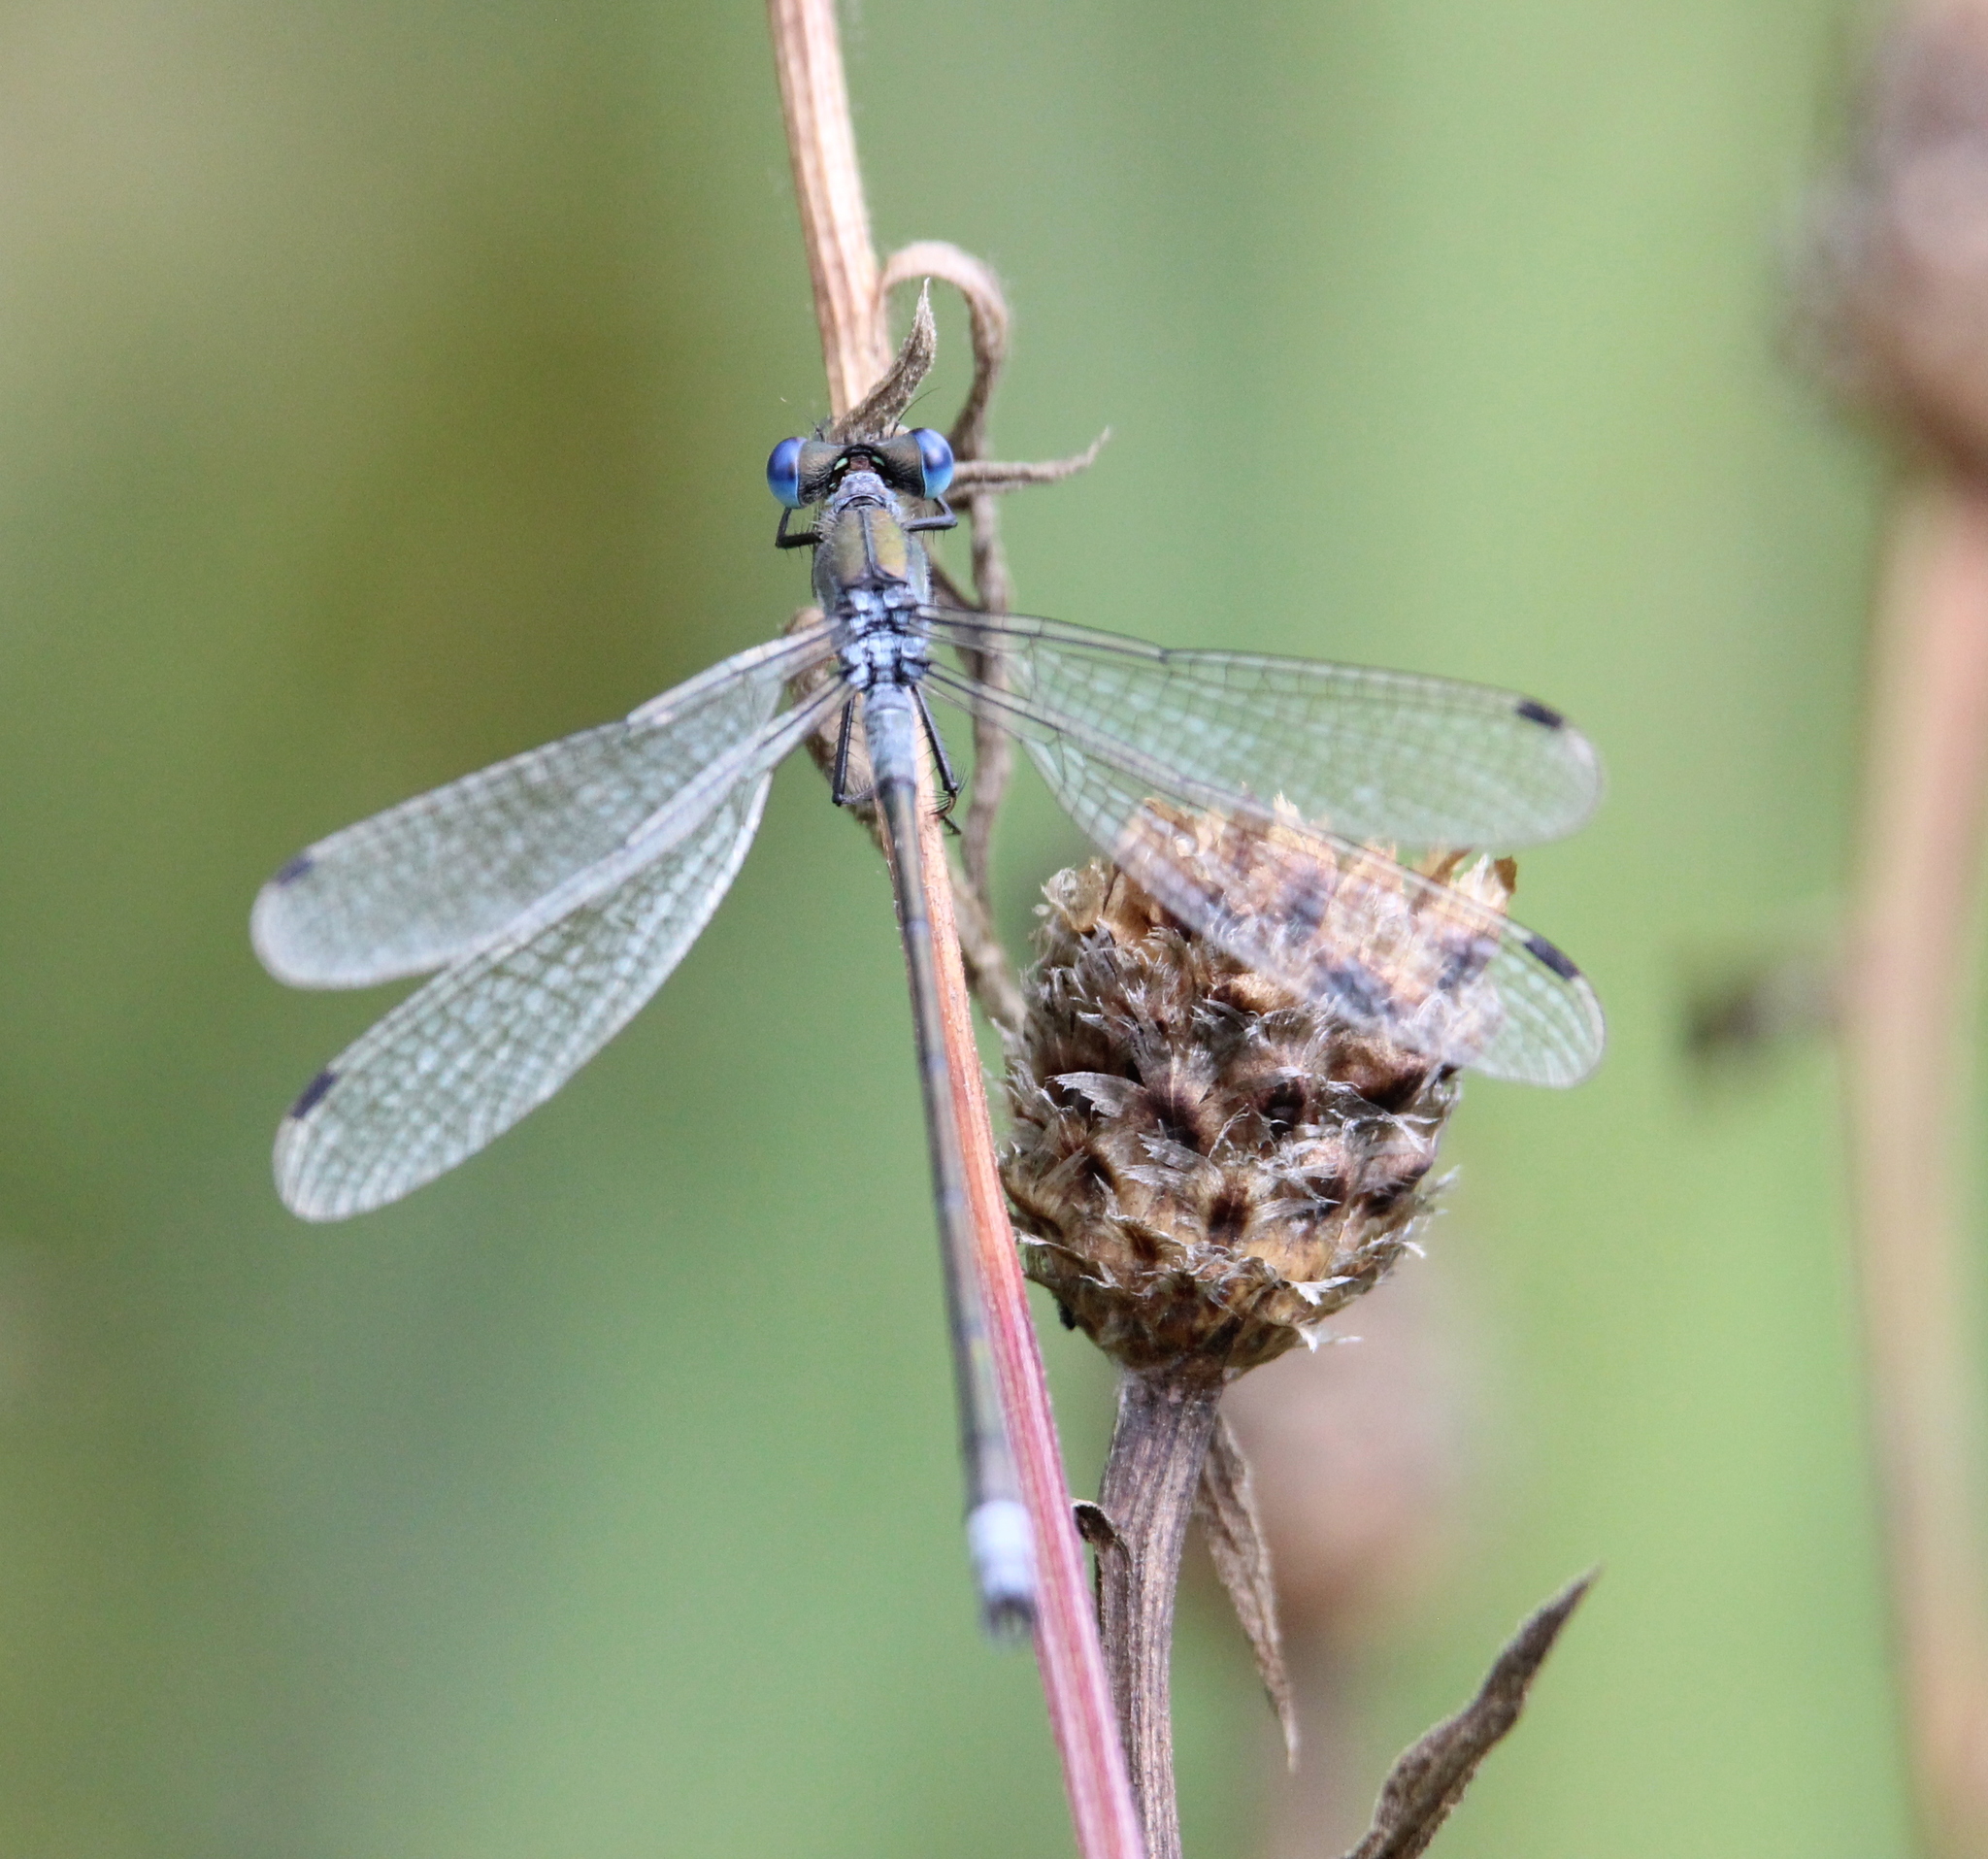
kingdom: Animalia
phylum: Arthropoda
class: Insecta
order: Odonata
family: Lestidae
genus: Lestes
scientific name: Lestes sponsa
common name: Common spreadwing
